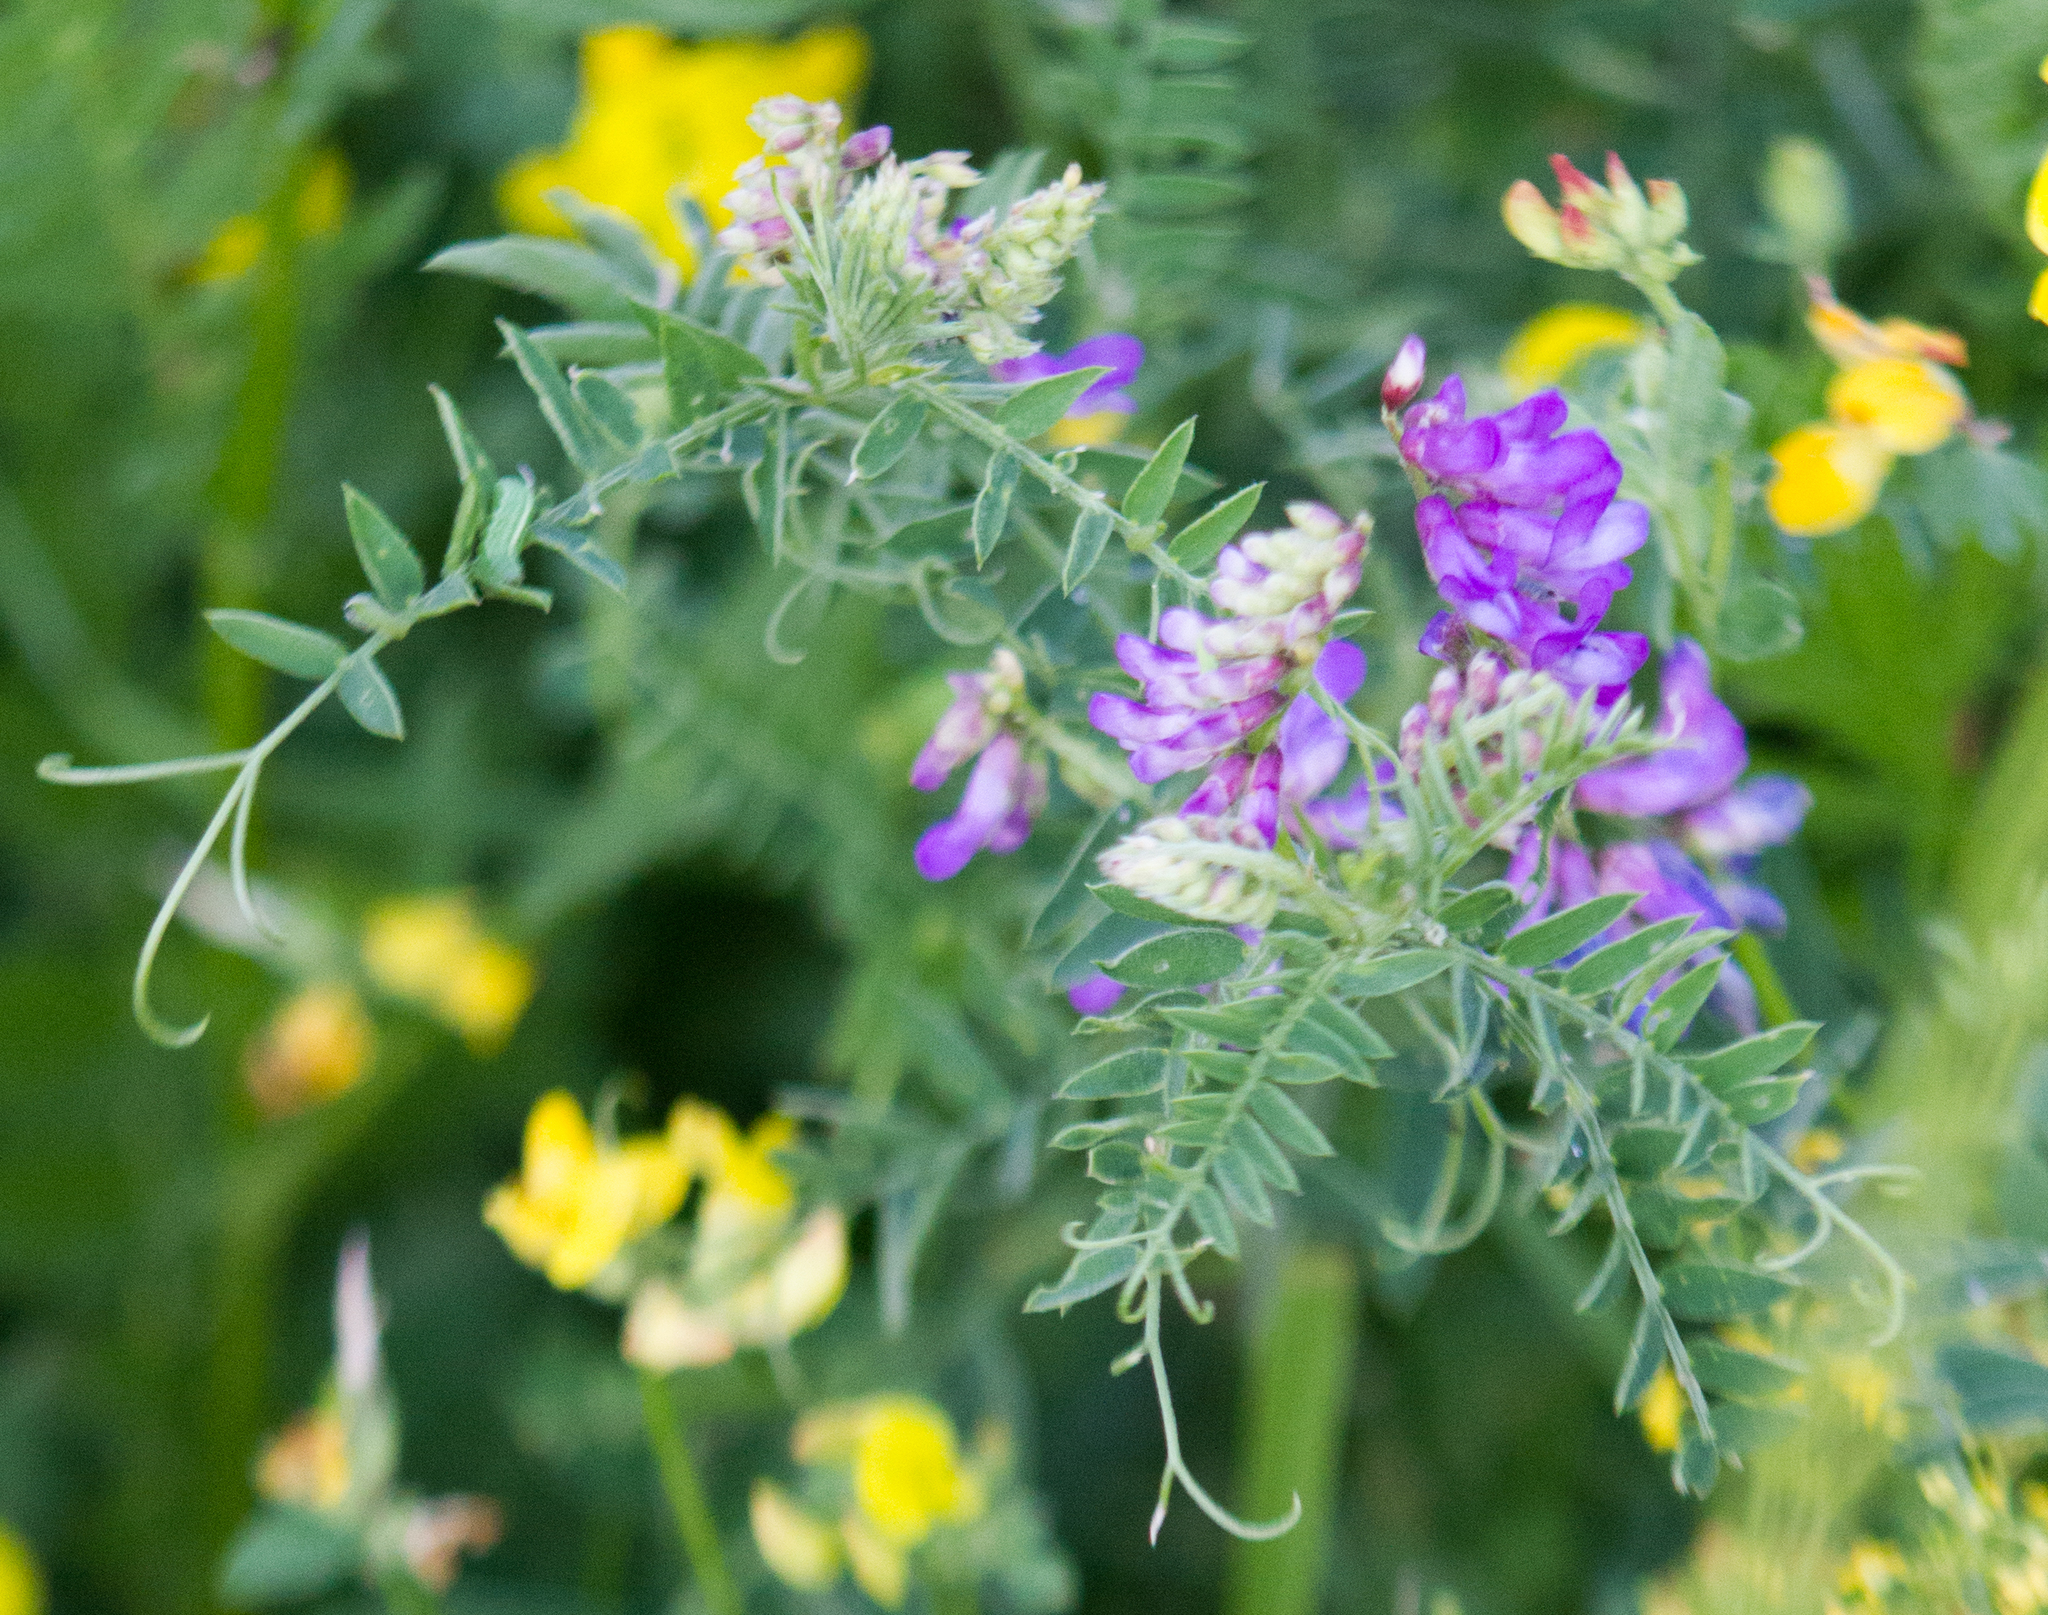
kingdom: Plantae
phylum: Tracheophyta
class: Magnoliopsida
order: Fabales
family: Fabaceae
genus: Vicia
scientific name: Vicia cracca
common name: Bird vetch
